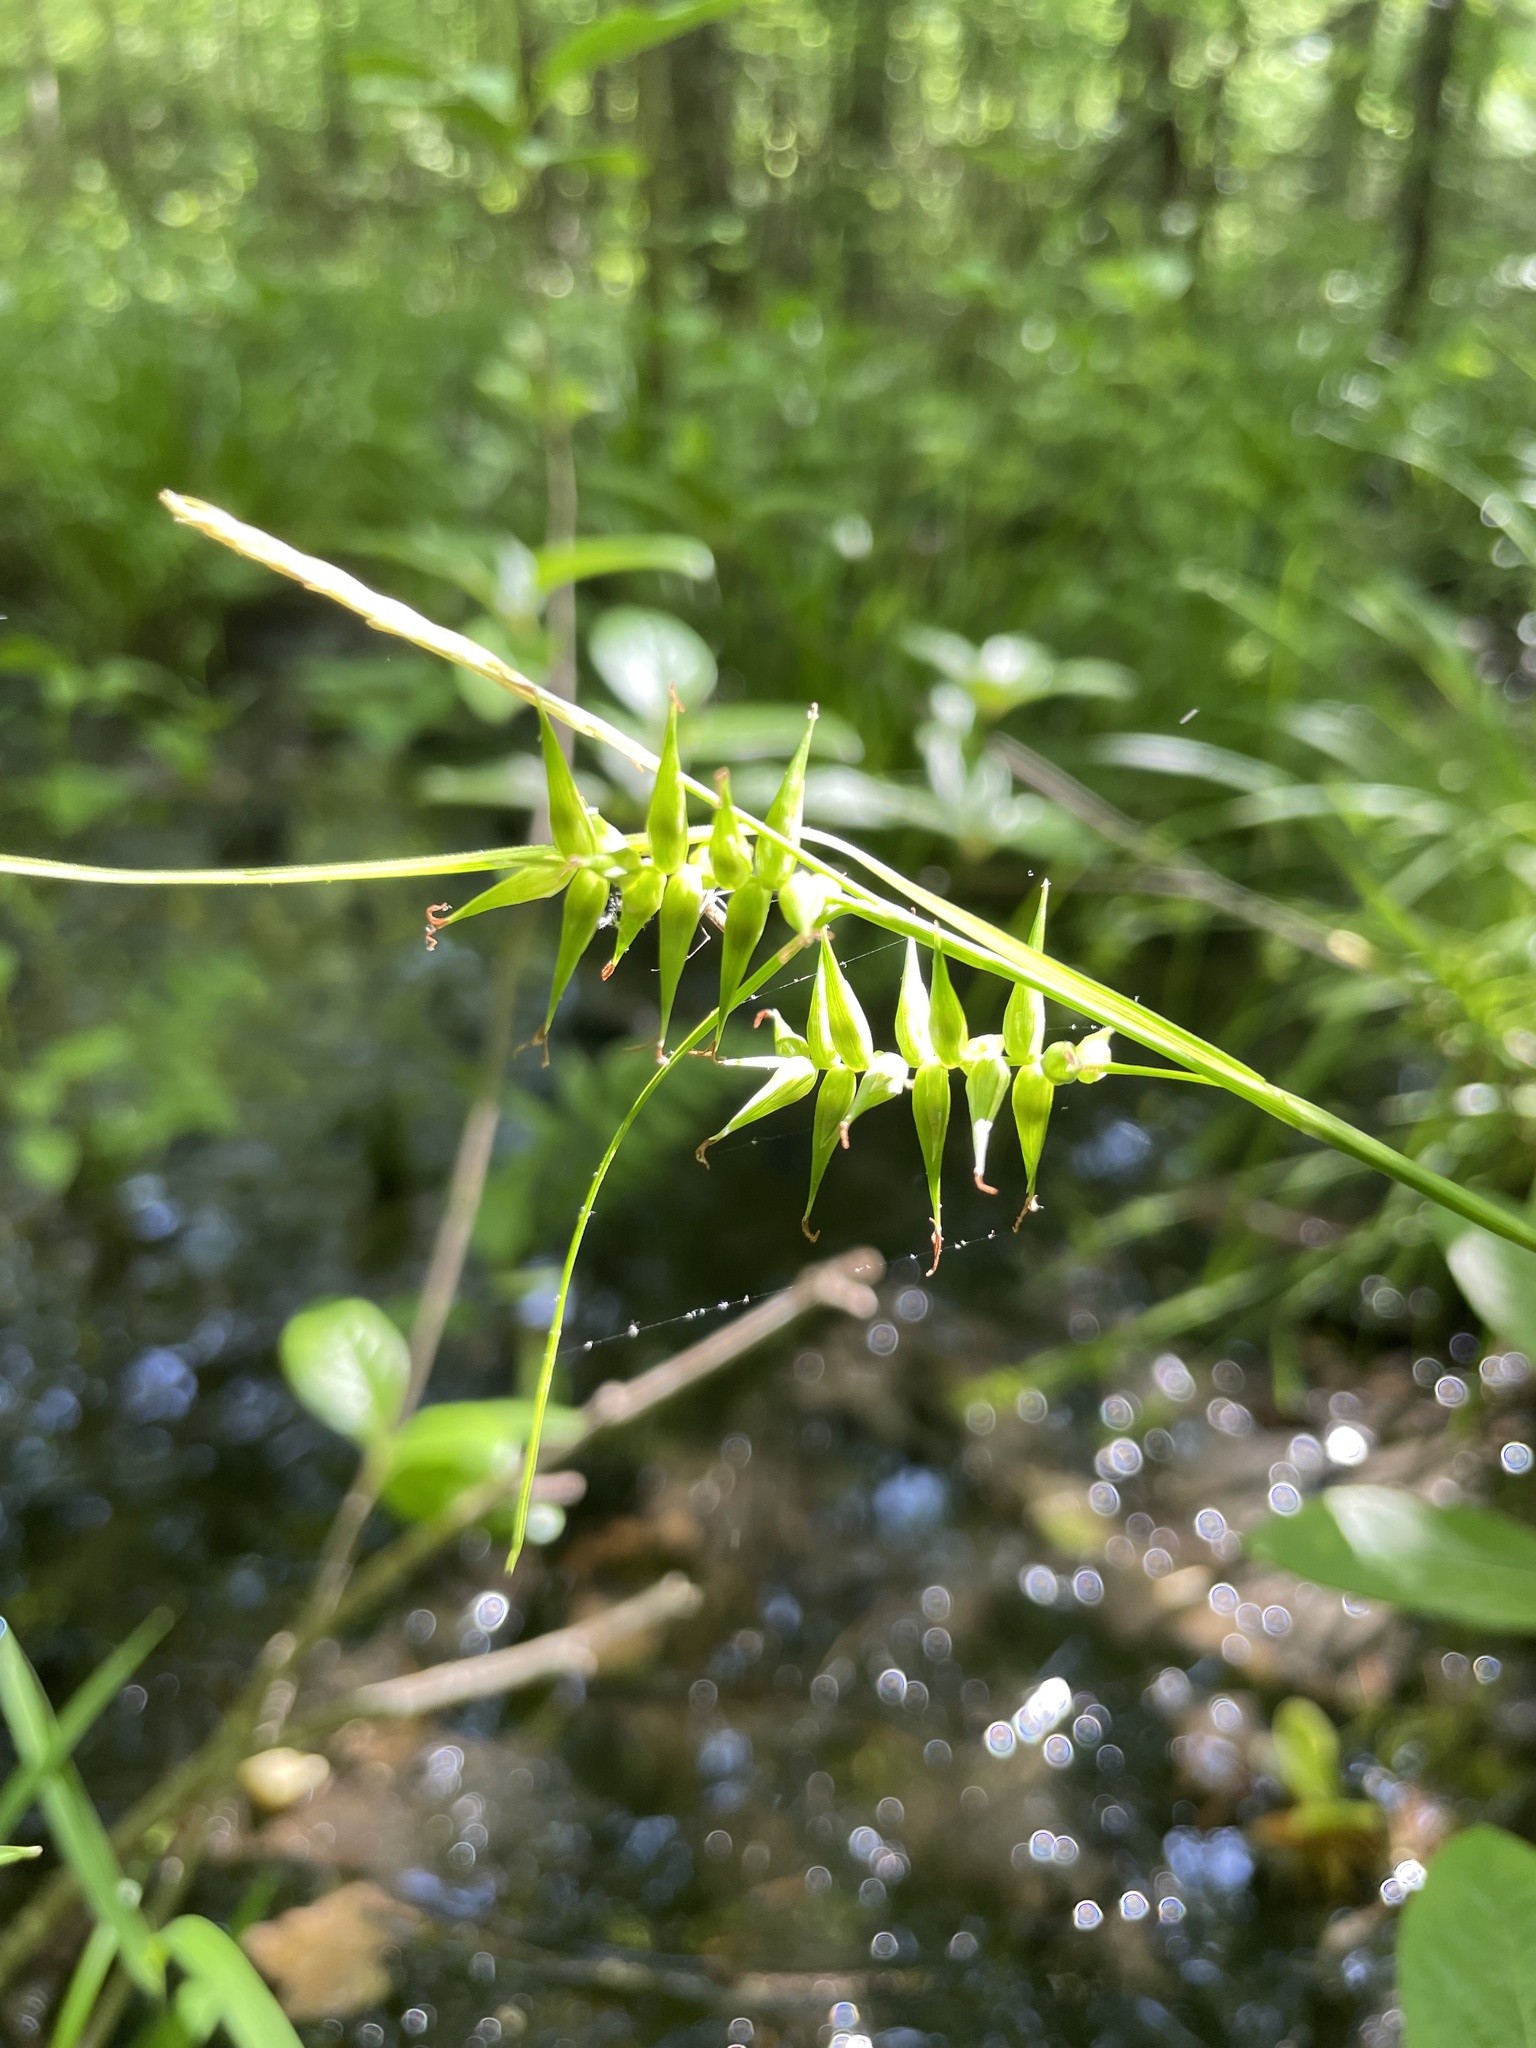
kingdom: Plantae
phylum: Tracheophyta
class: Liliopsida
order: Poales
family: Cyperaceae
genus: Carex
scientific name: Carex lonchocarpa
